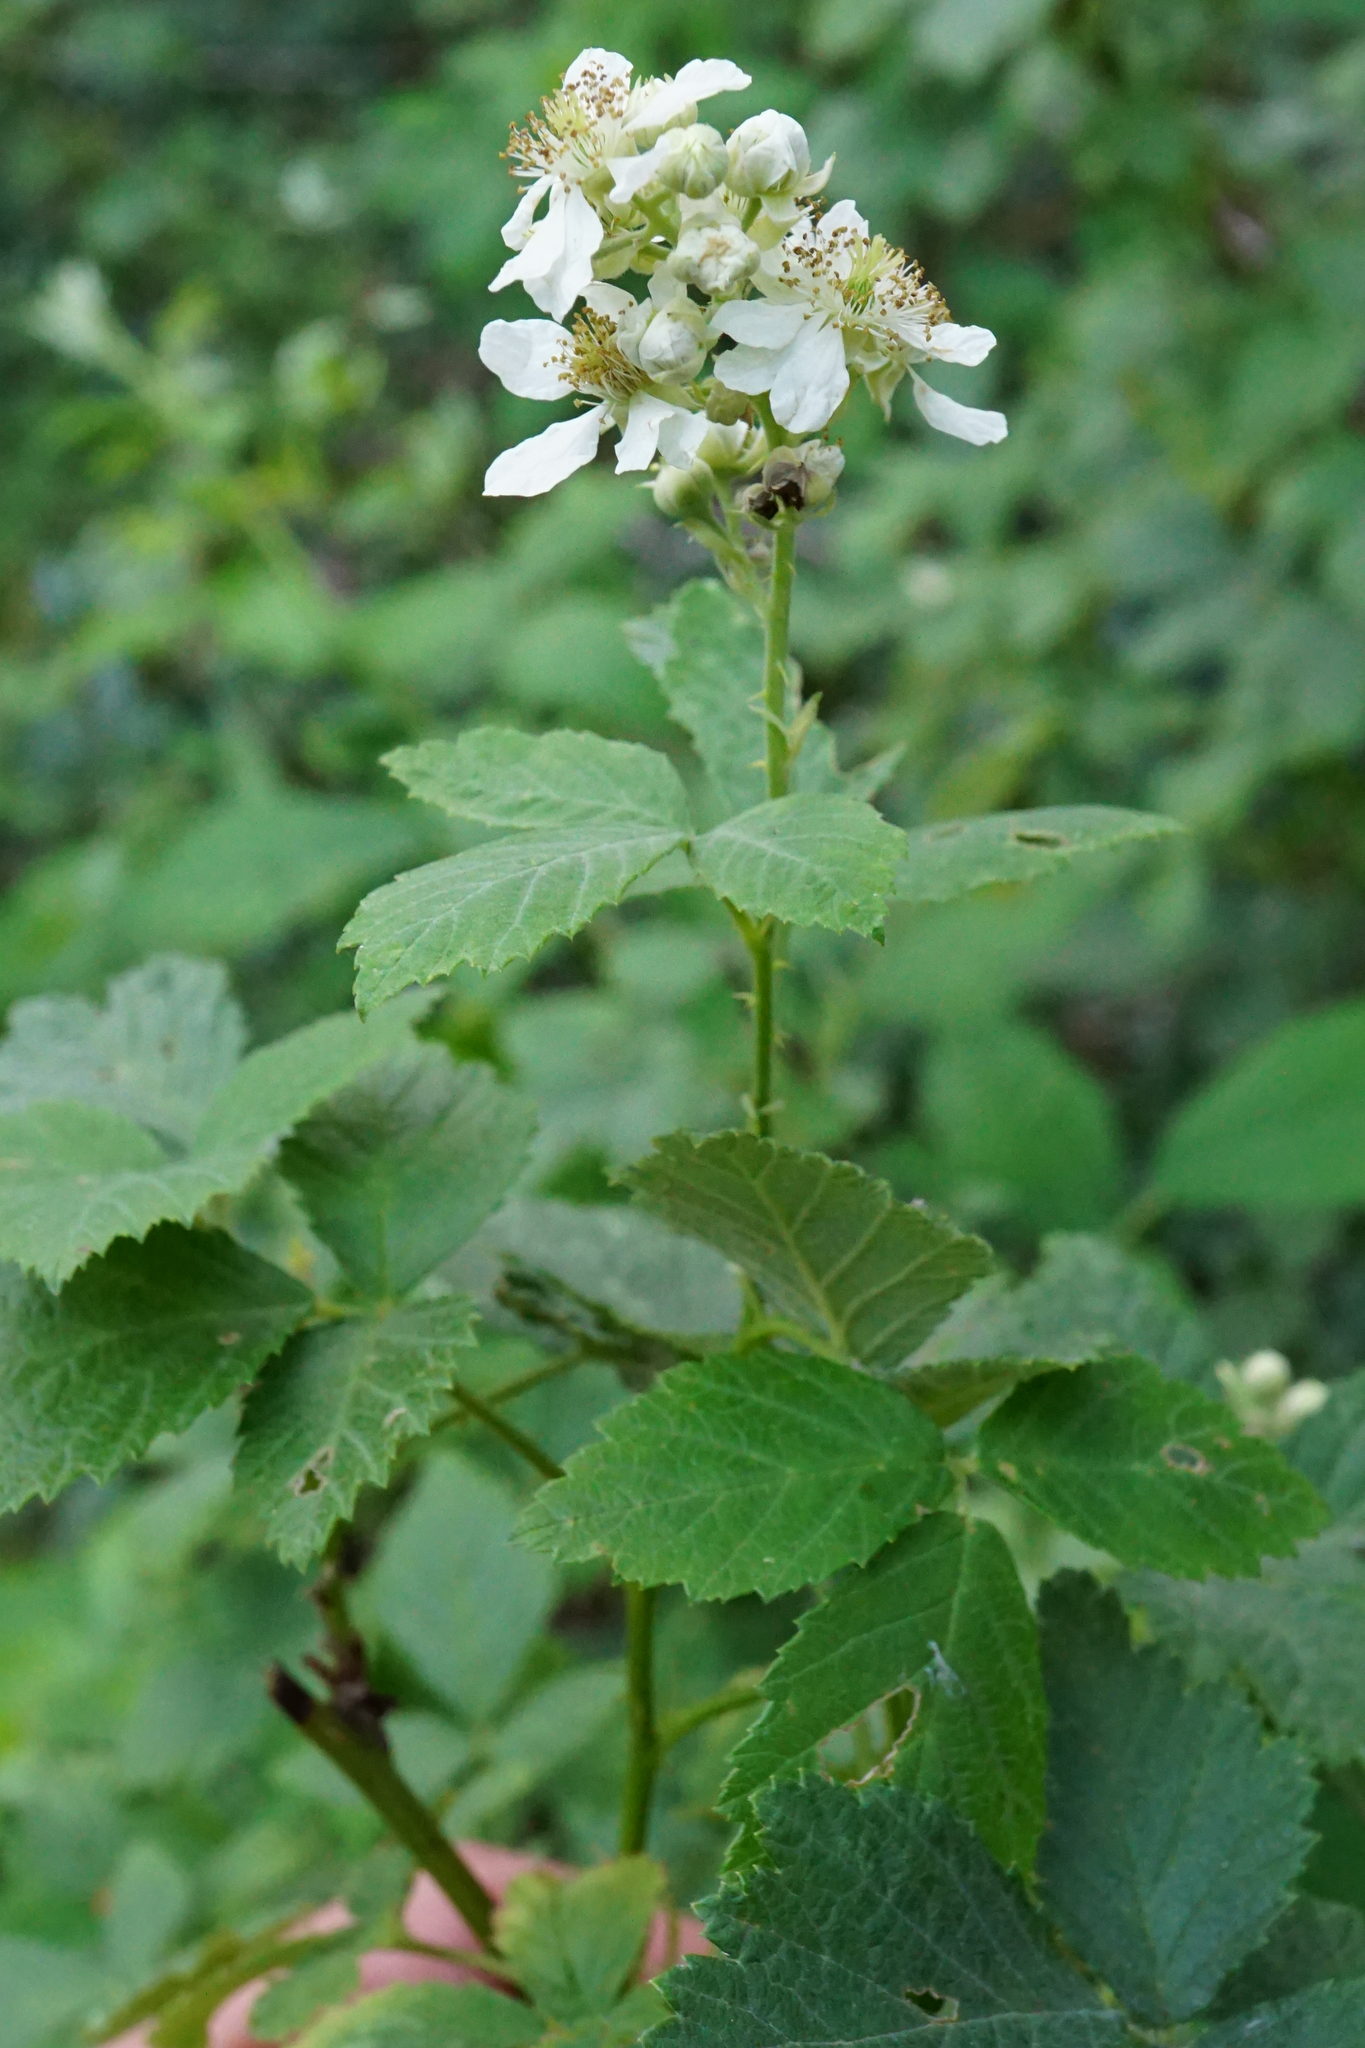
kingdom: Plantae
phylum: Tracheophyta
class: Magnoliopsida
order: Rosales
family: Rosaceae
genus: Rubus
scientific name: Rubus canescens
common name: Wooly blackberry
